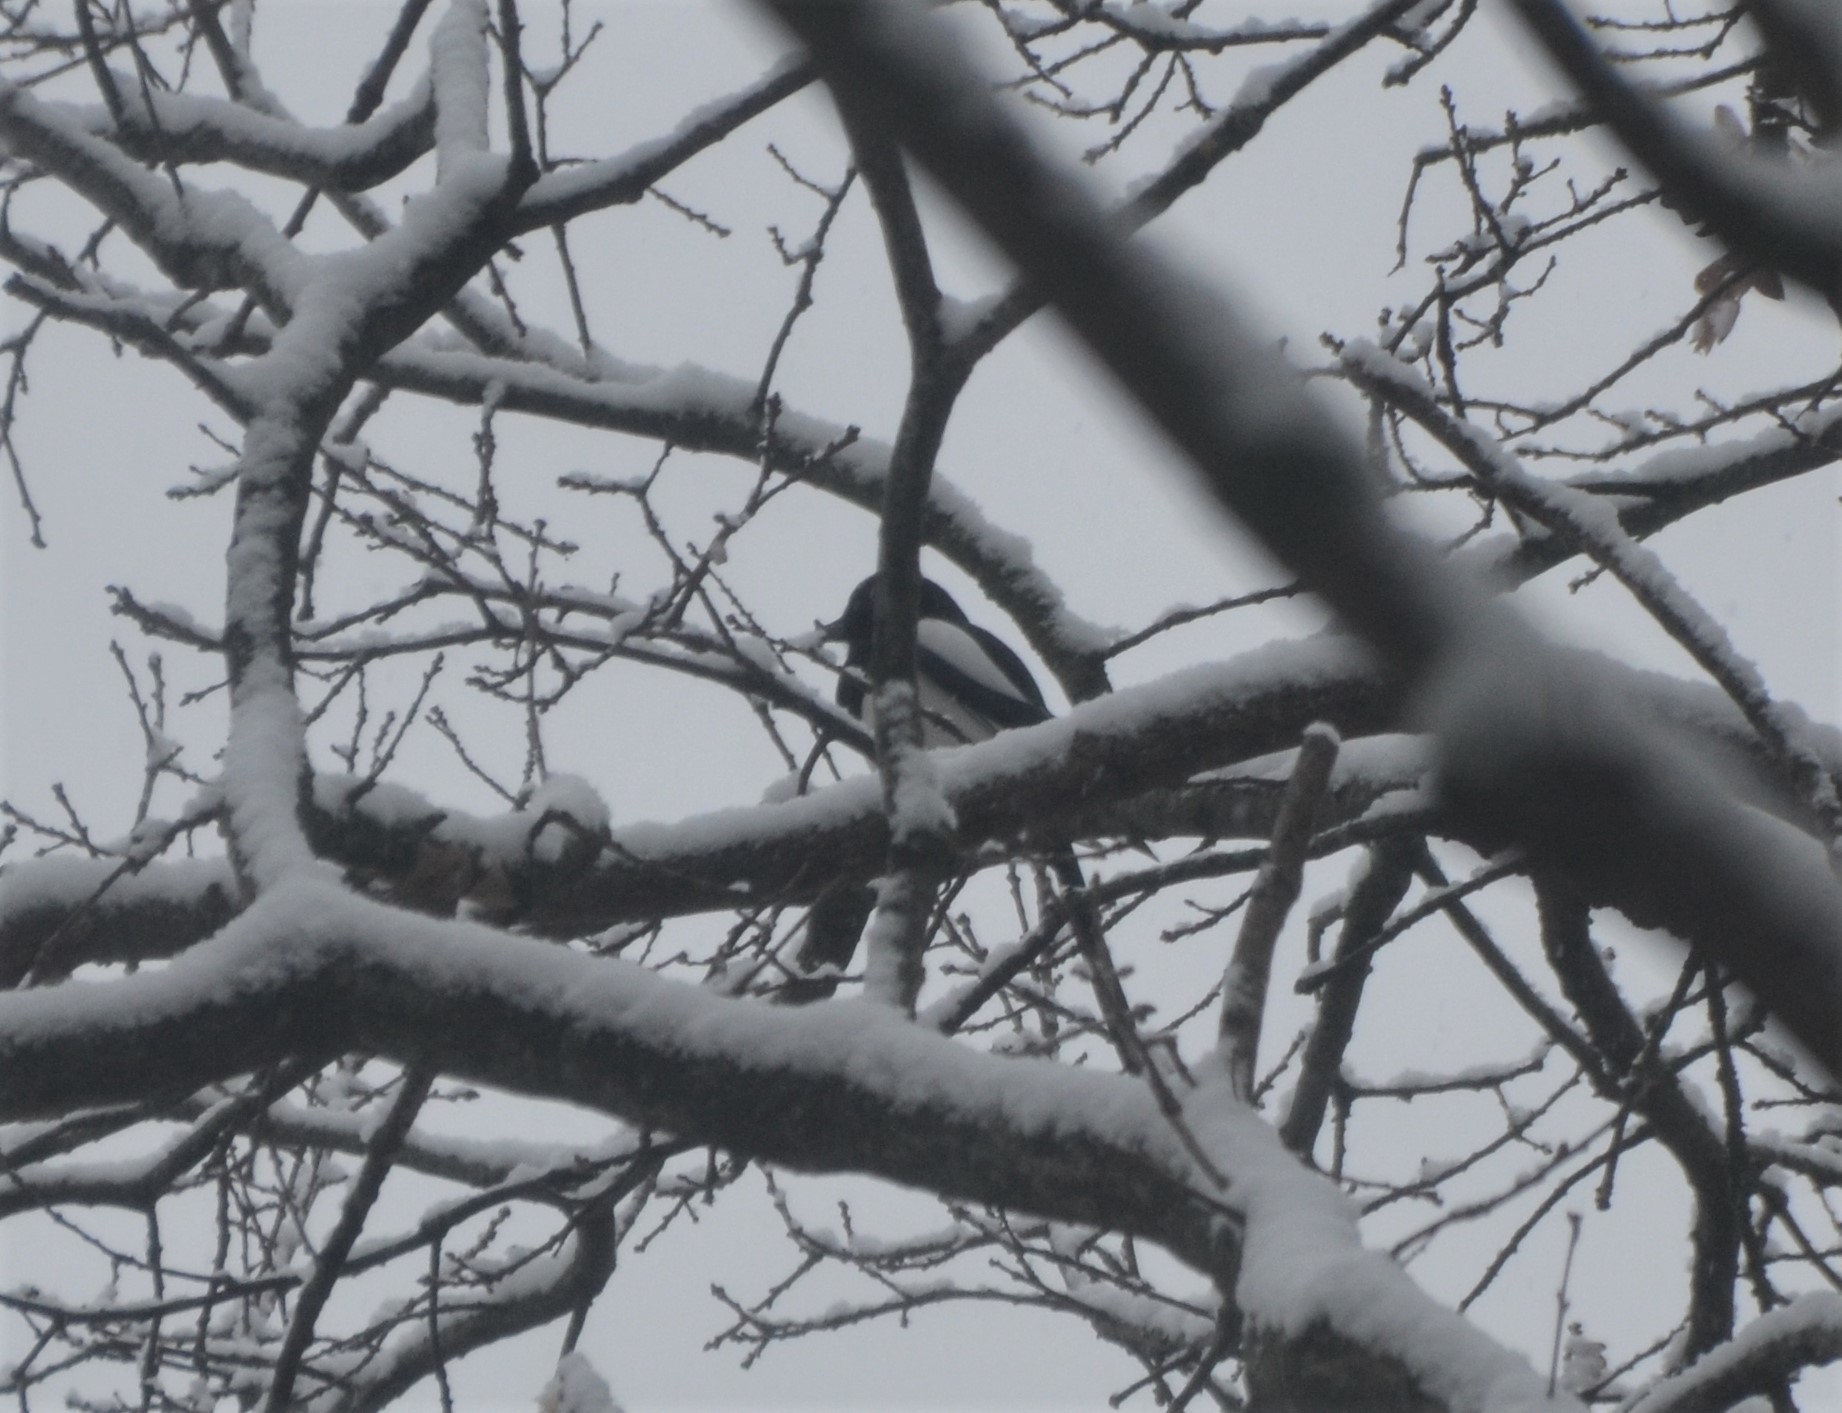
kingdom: Animalia
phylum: Chordata
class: Aves
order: Passeriformes
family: Corvidae
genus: Pica
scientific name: Pica pica
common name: Eurasian magpie
